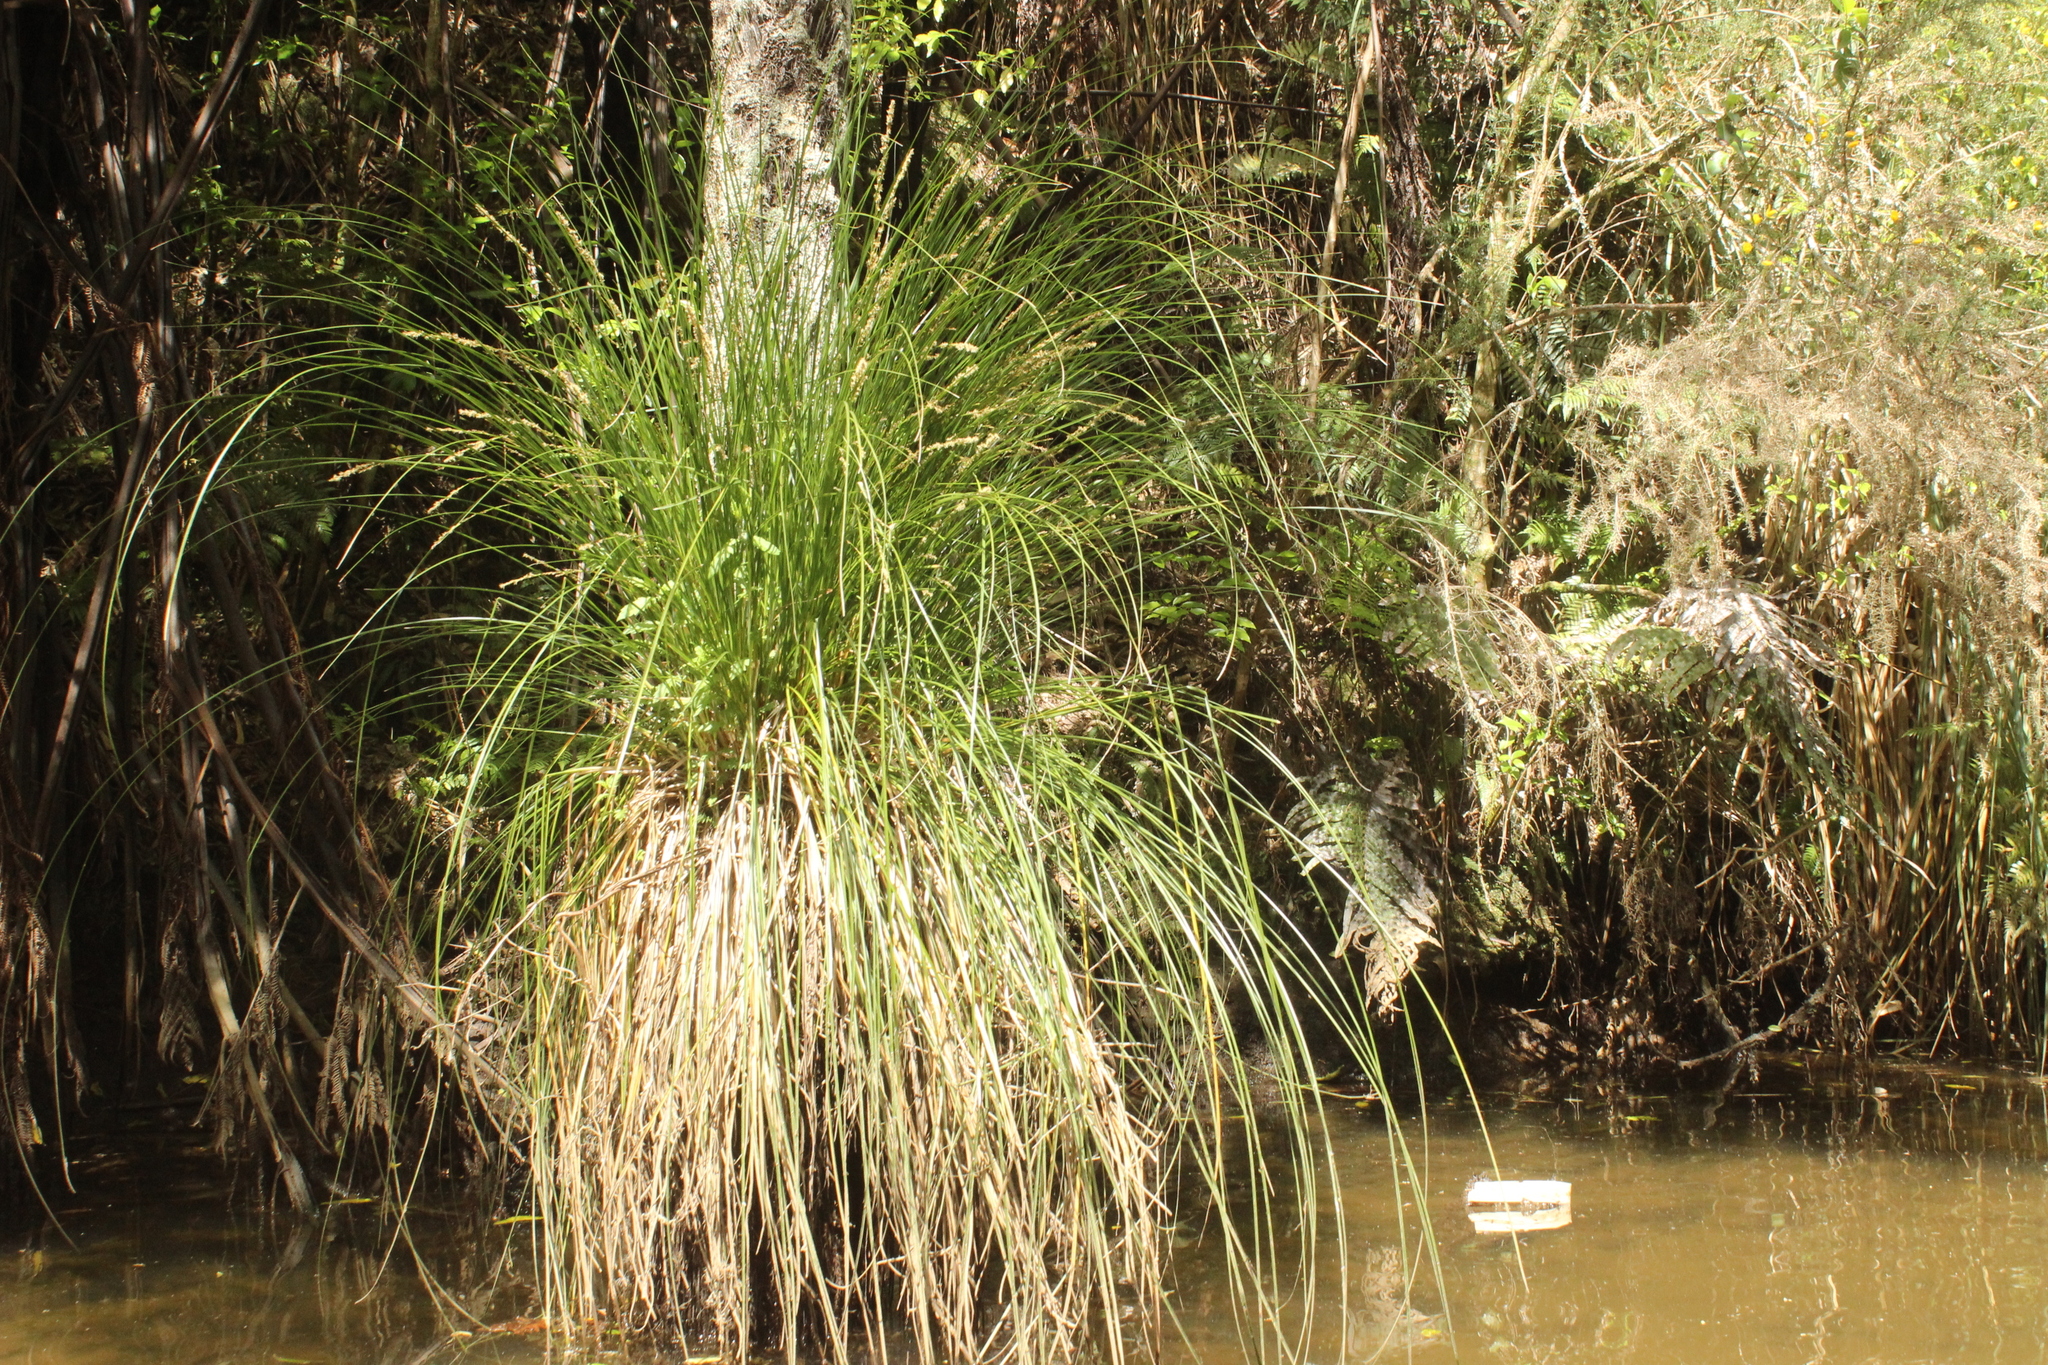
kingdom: Plantae
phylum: Tracheophyta
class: Liliopsida
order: Poales
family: Cyperaceae
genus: Carex
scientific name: Carex secta
